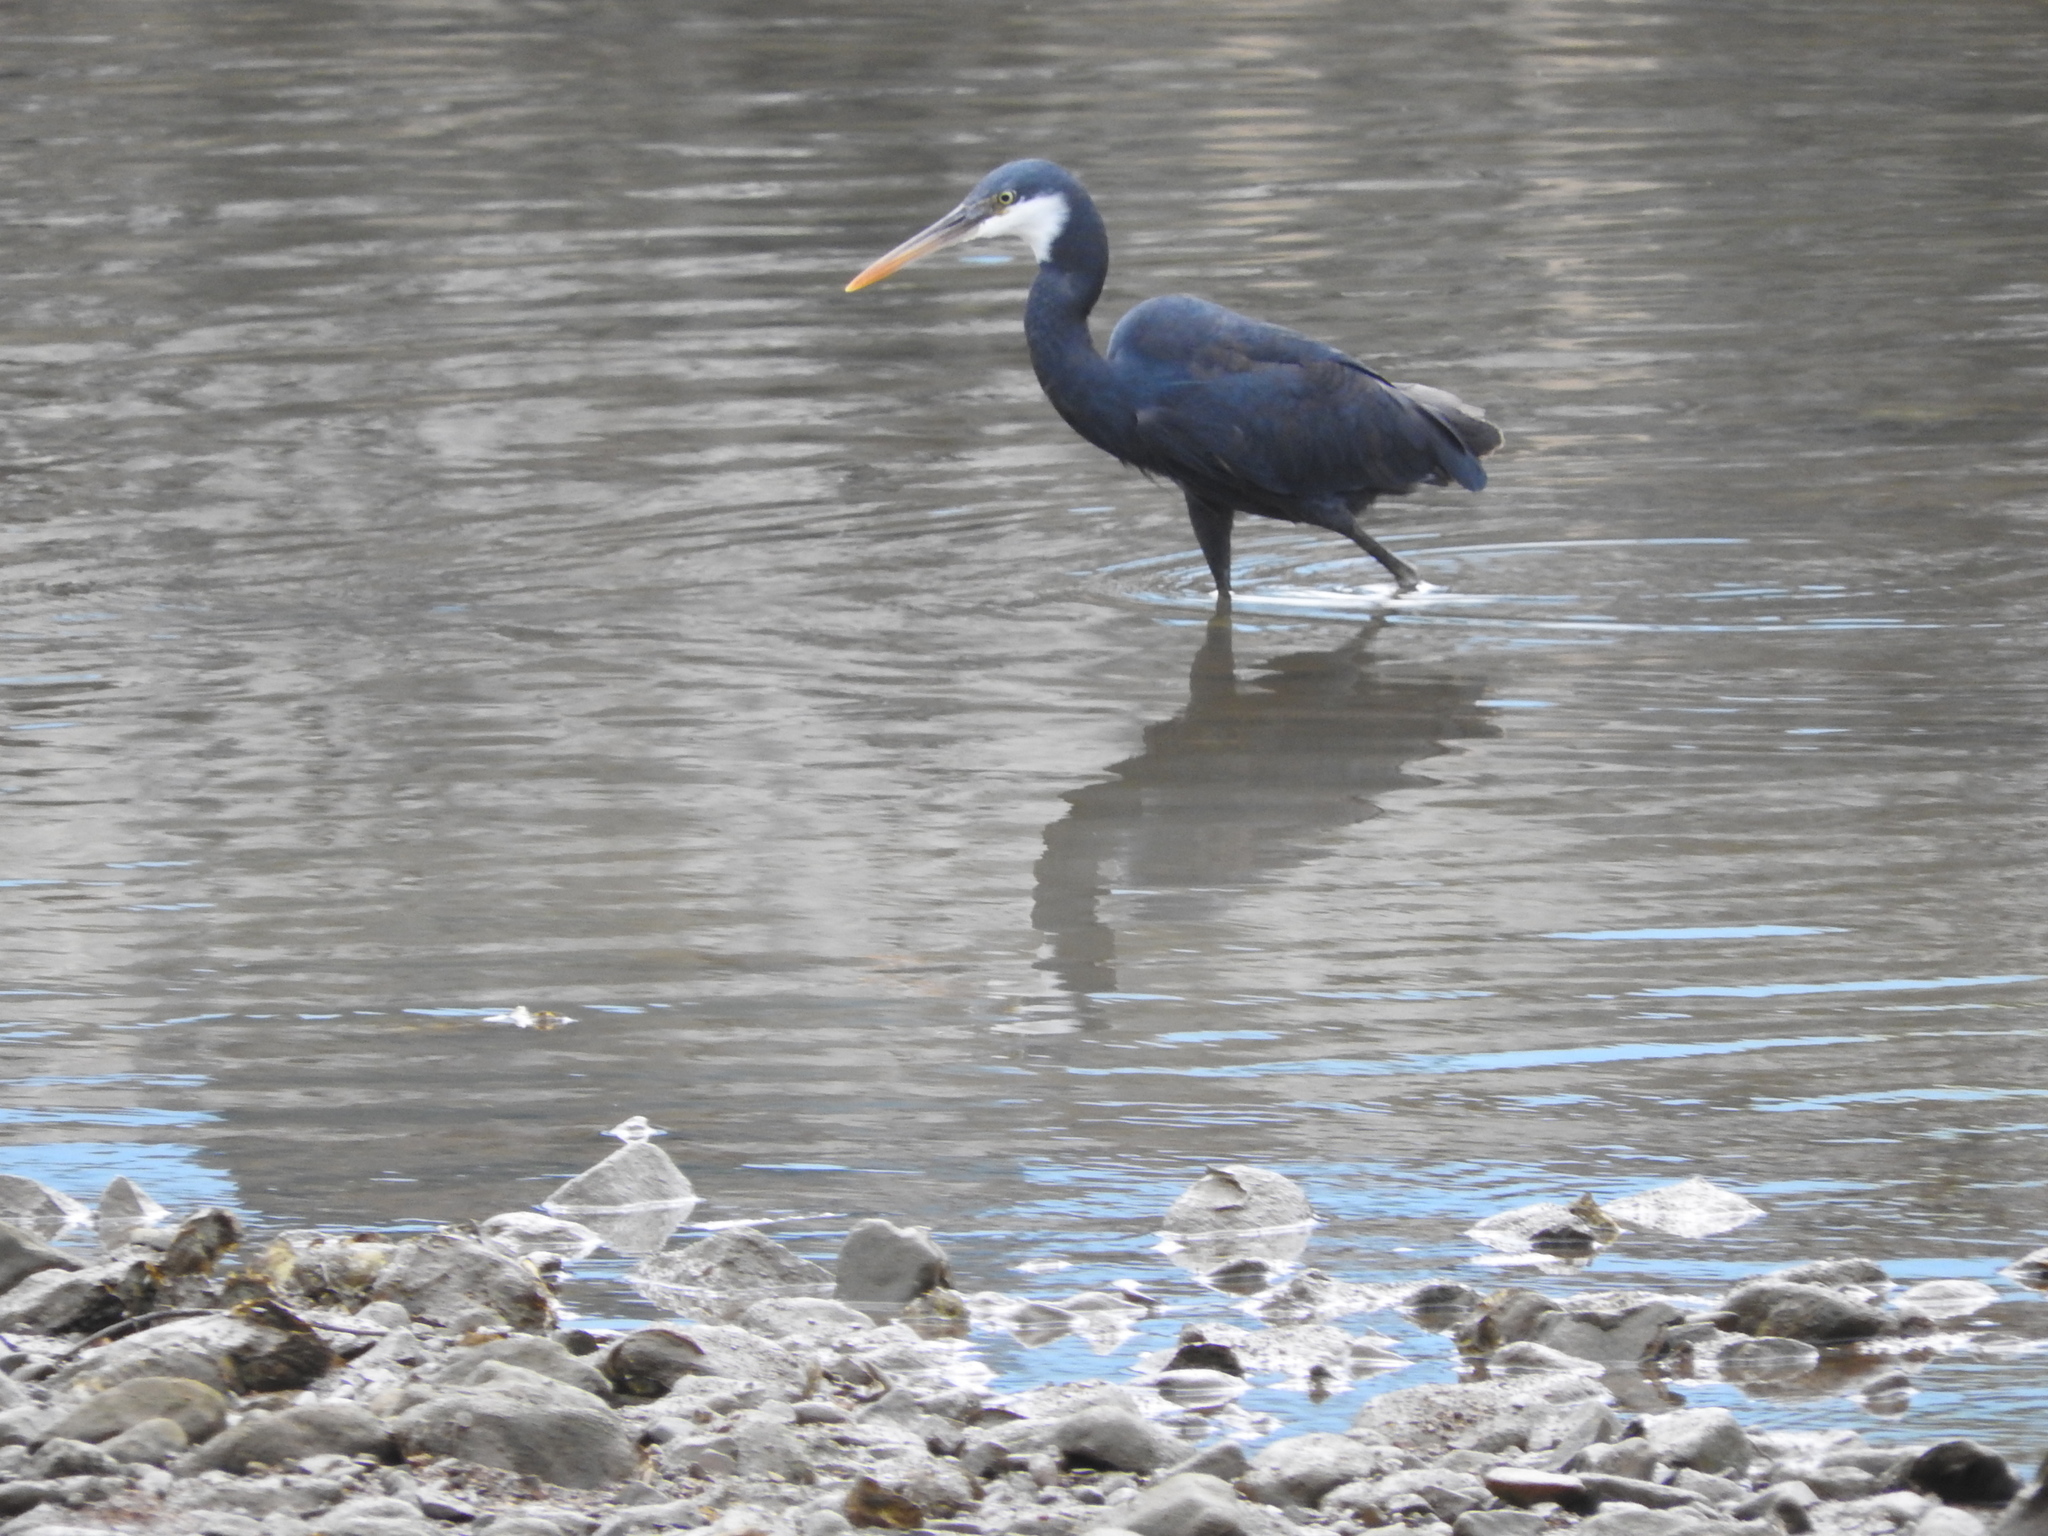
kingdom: Animalia
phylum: Chordata
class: Aves
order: Pelecaniformes
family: Ardeidae
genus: Egretta
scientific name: Egretta gularis
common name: Western reef-heron
